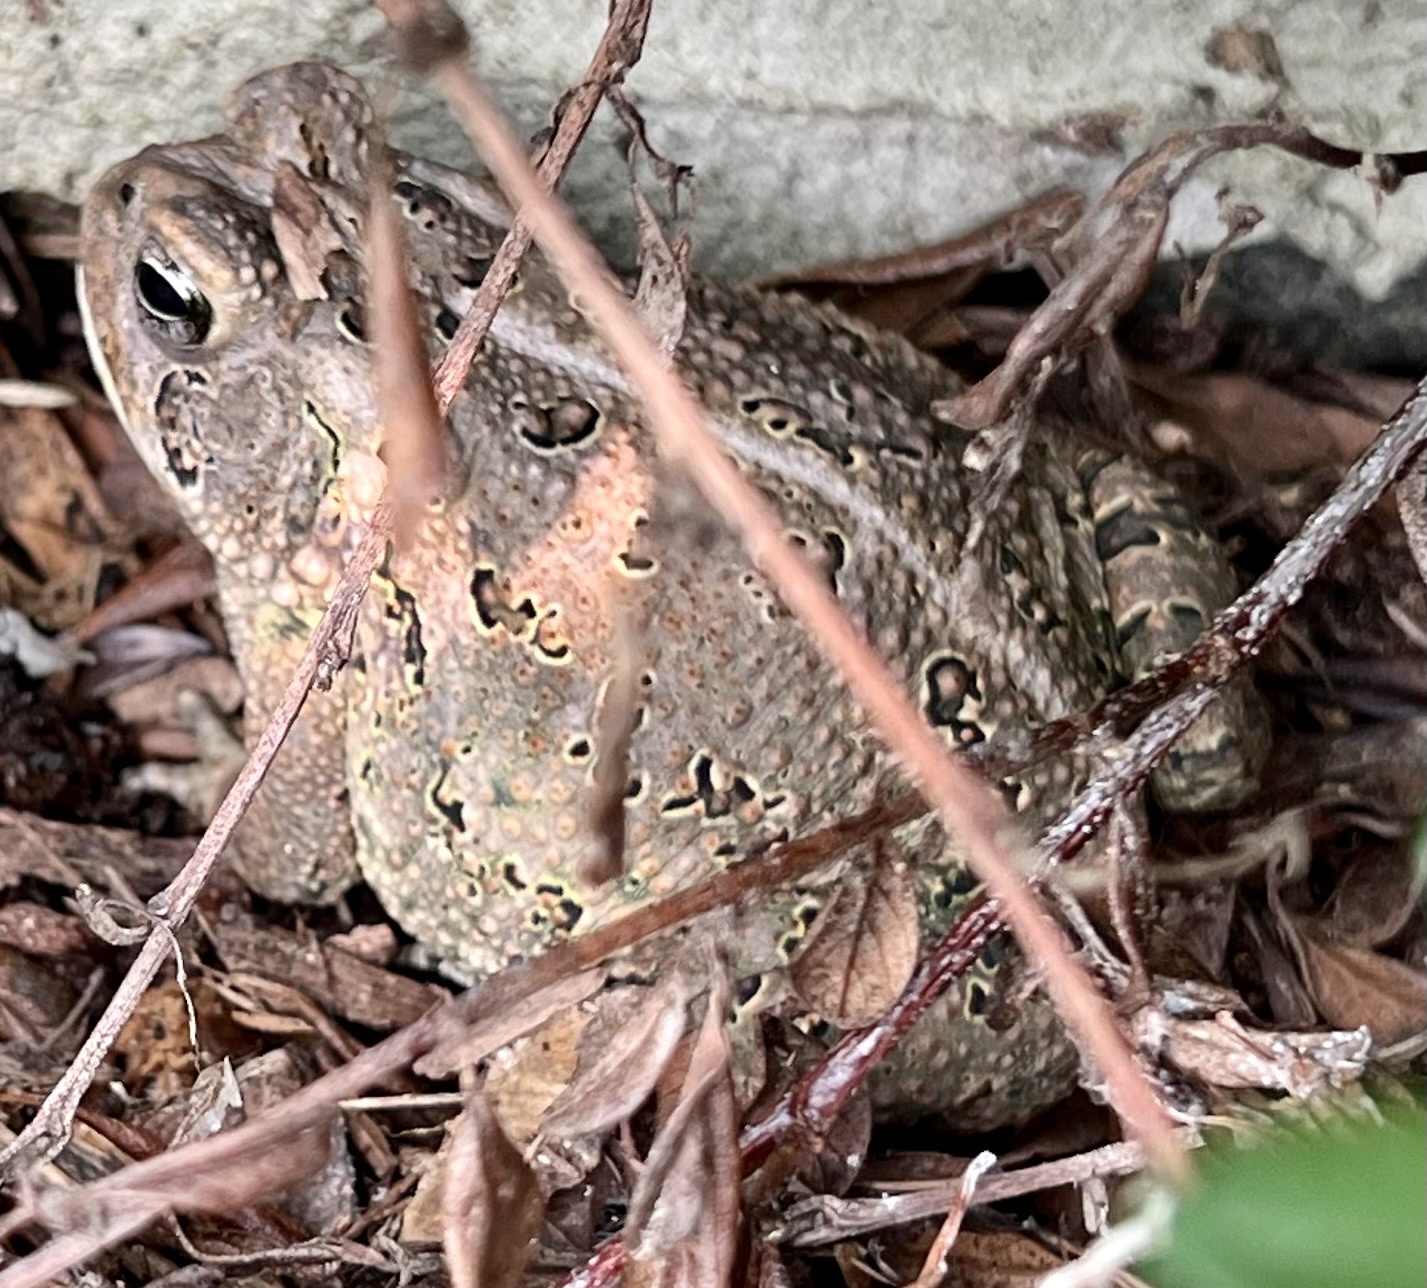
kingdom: Animalia
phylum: Chordata
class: Amphibia
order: Anura
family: Bufonidae
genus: Anaxyrus
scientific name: Anaxyrus fowleri
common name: Fowler's toad
